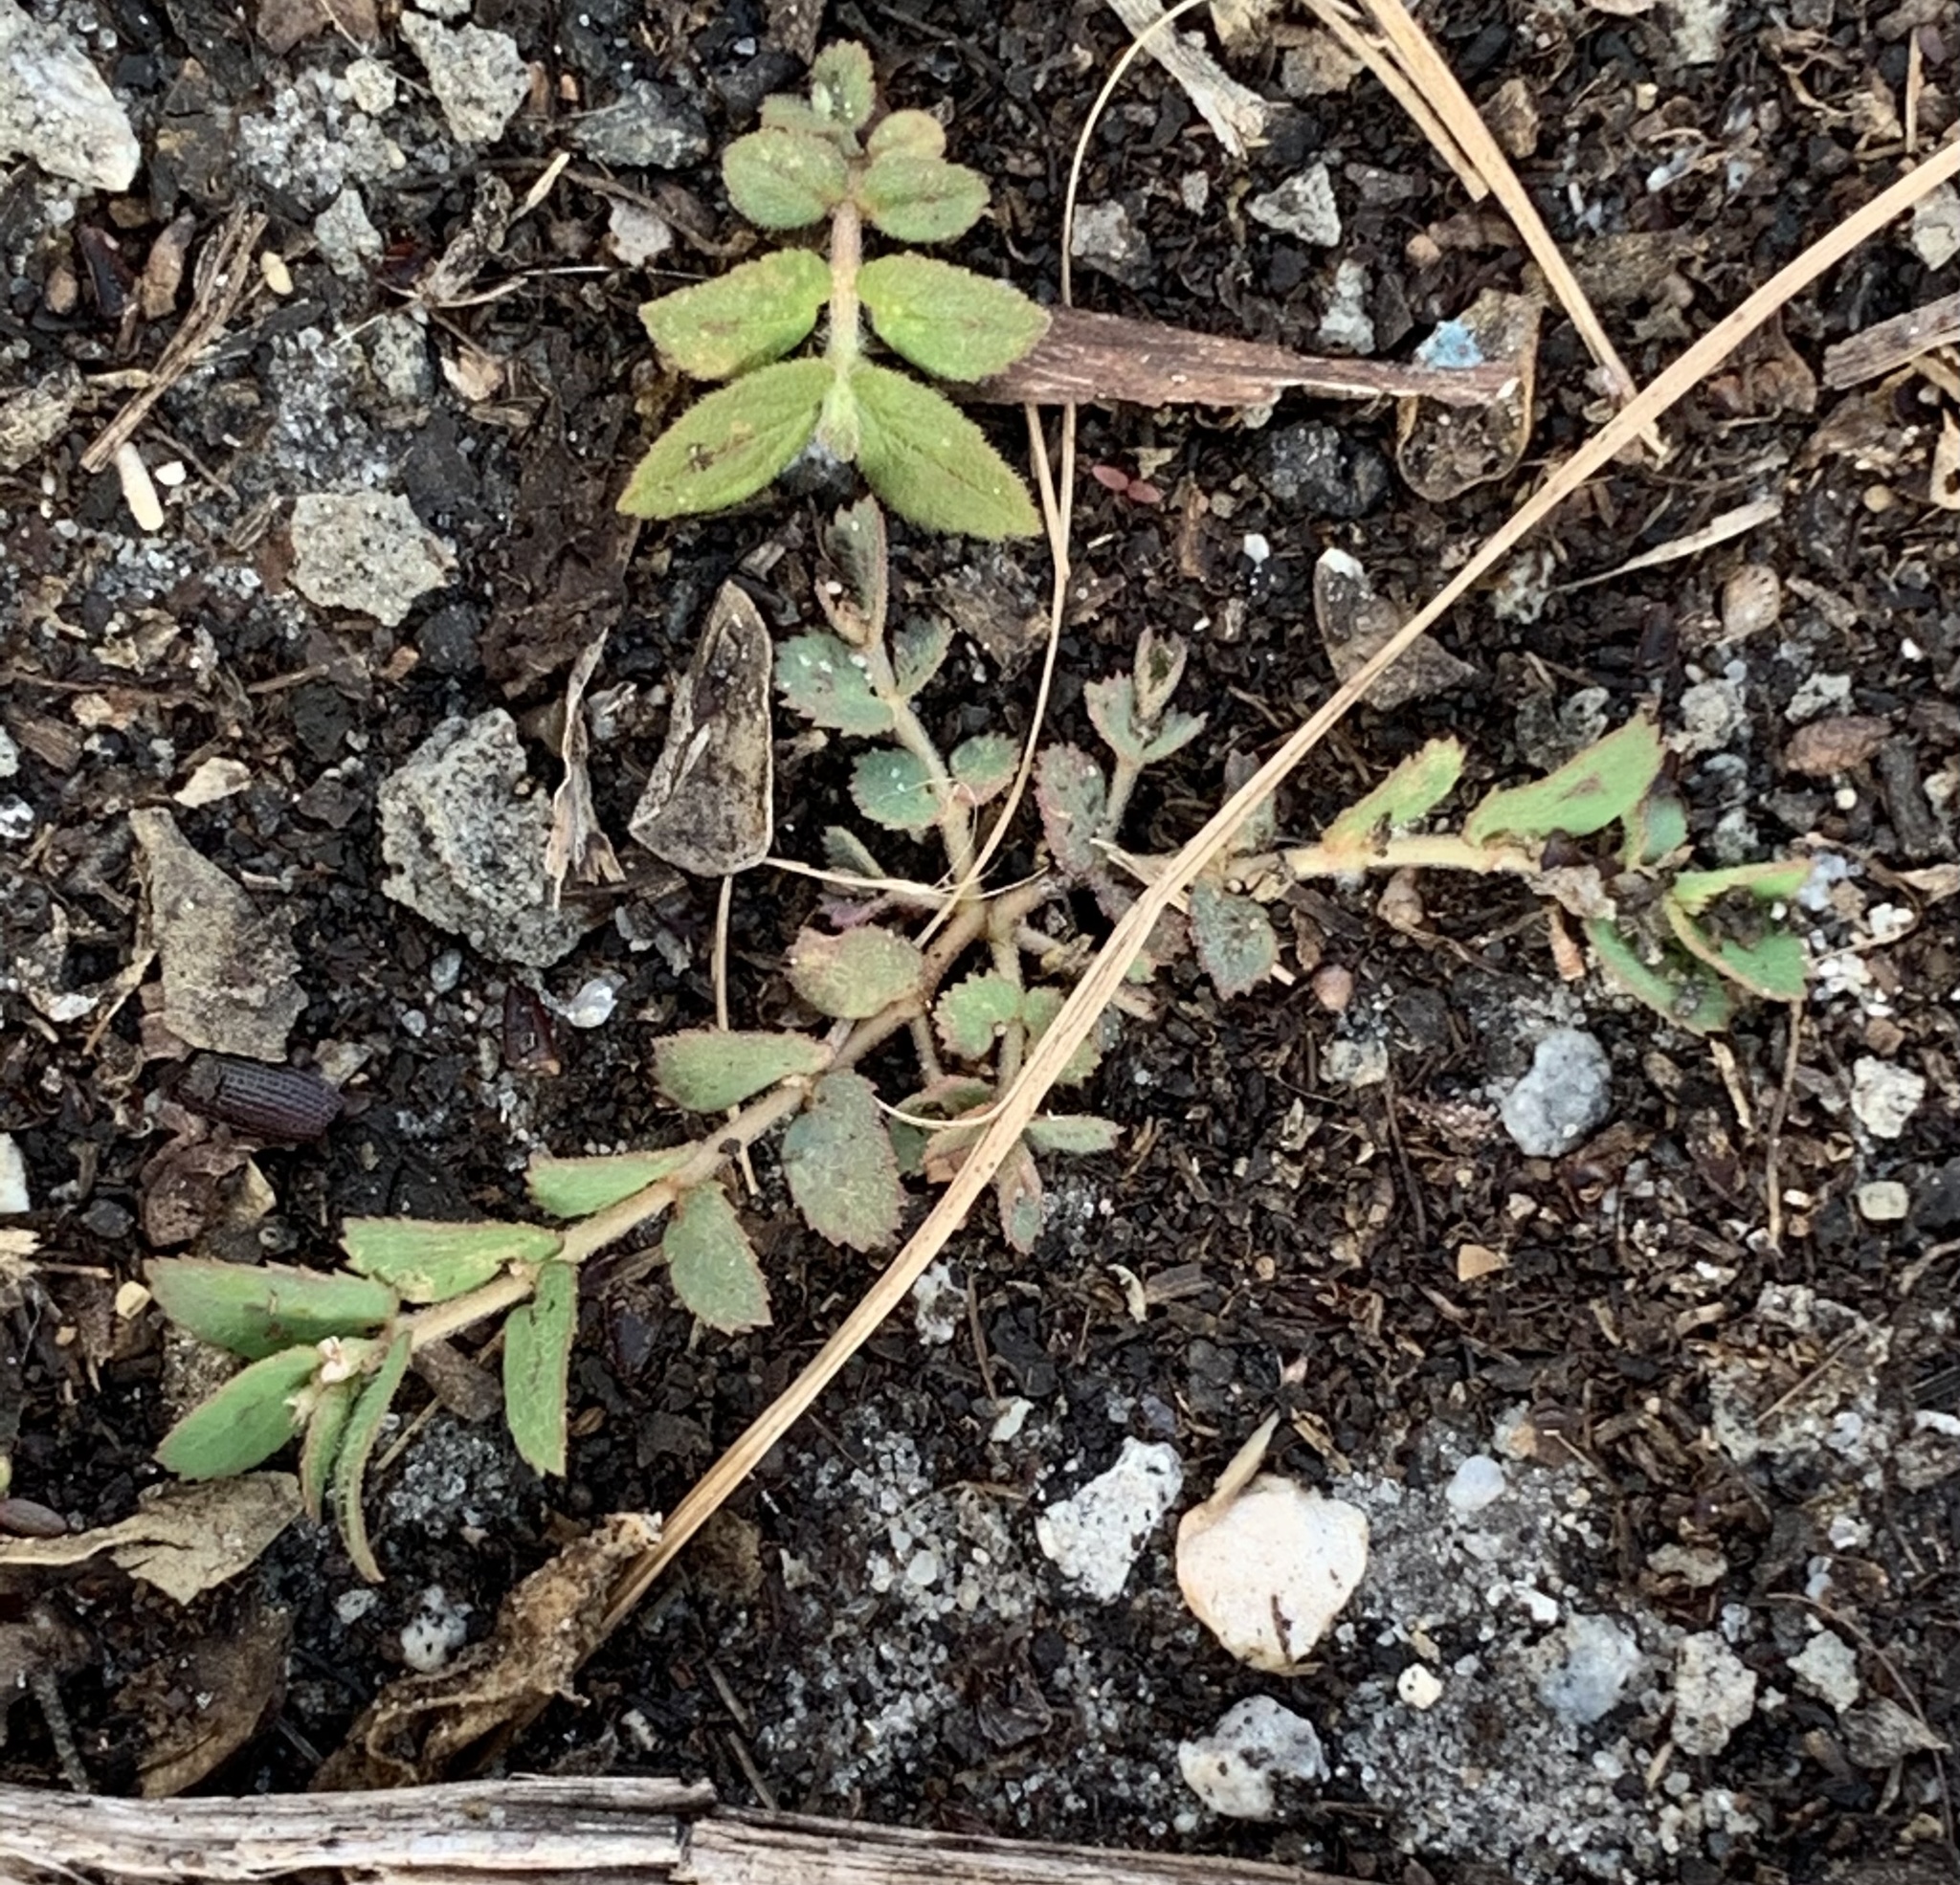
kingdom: Plantae
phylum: Tracheophyta
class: Magnoliopsida
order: Malpighiales
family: Euphorbiaceae
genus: Euphorbia
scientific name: Euphorbia thymifolia
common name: Gulf sandmat
